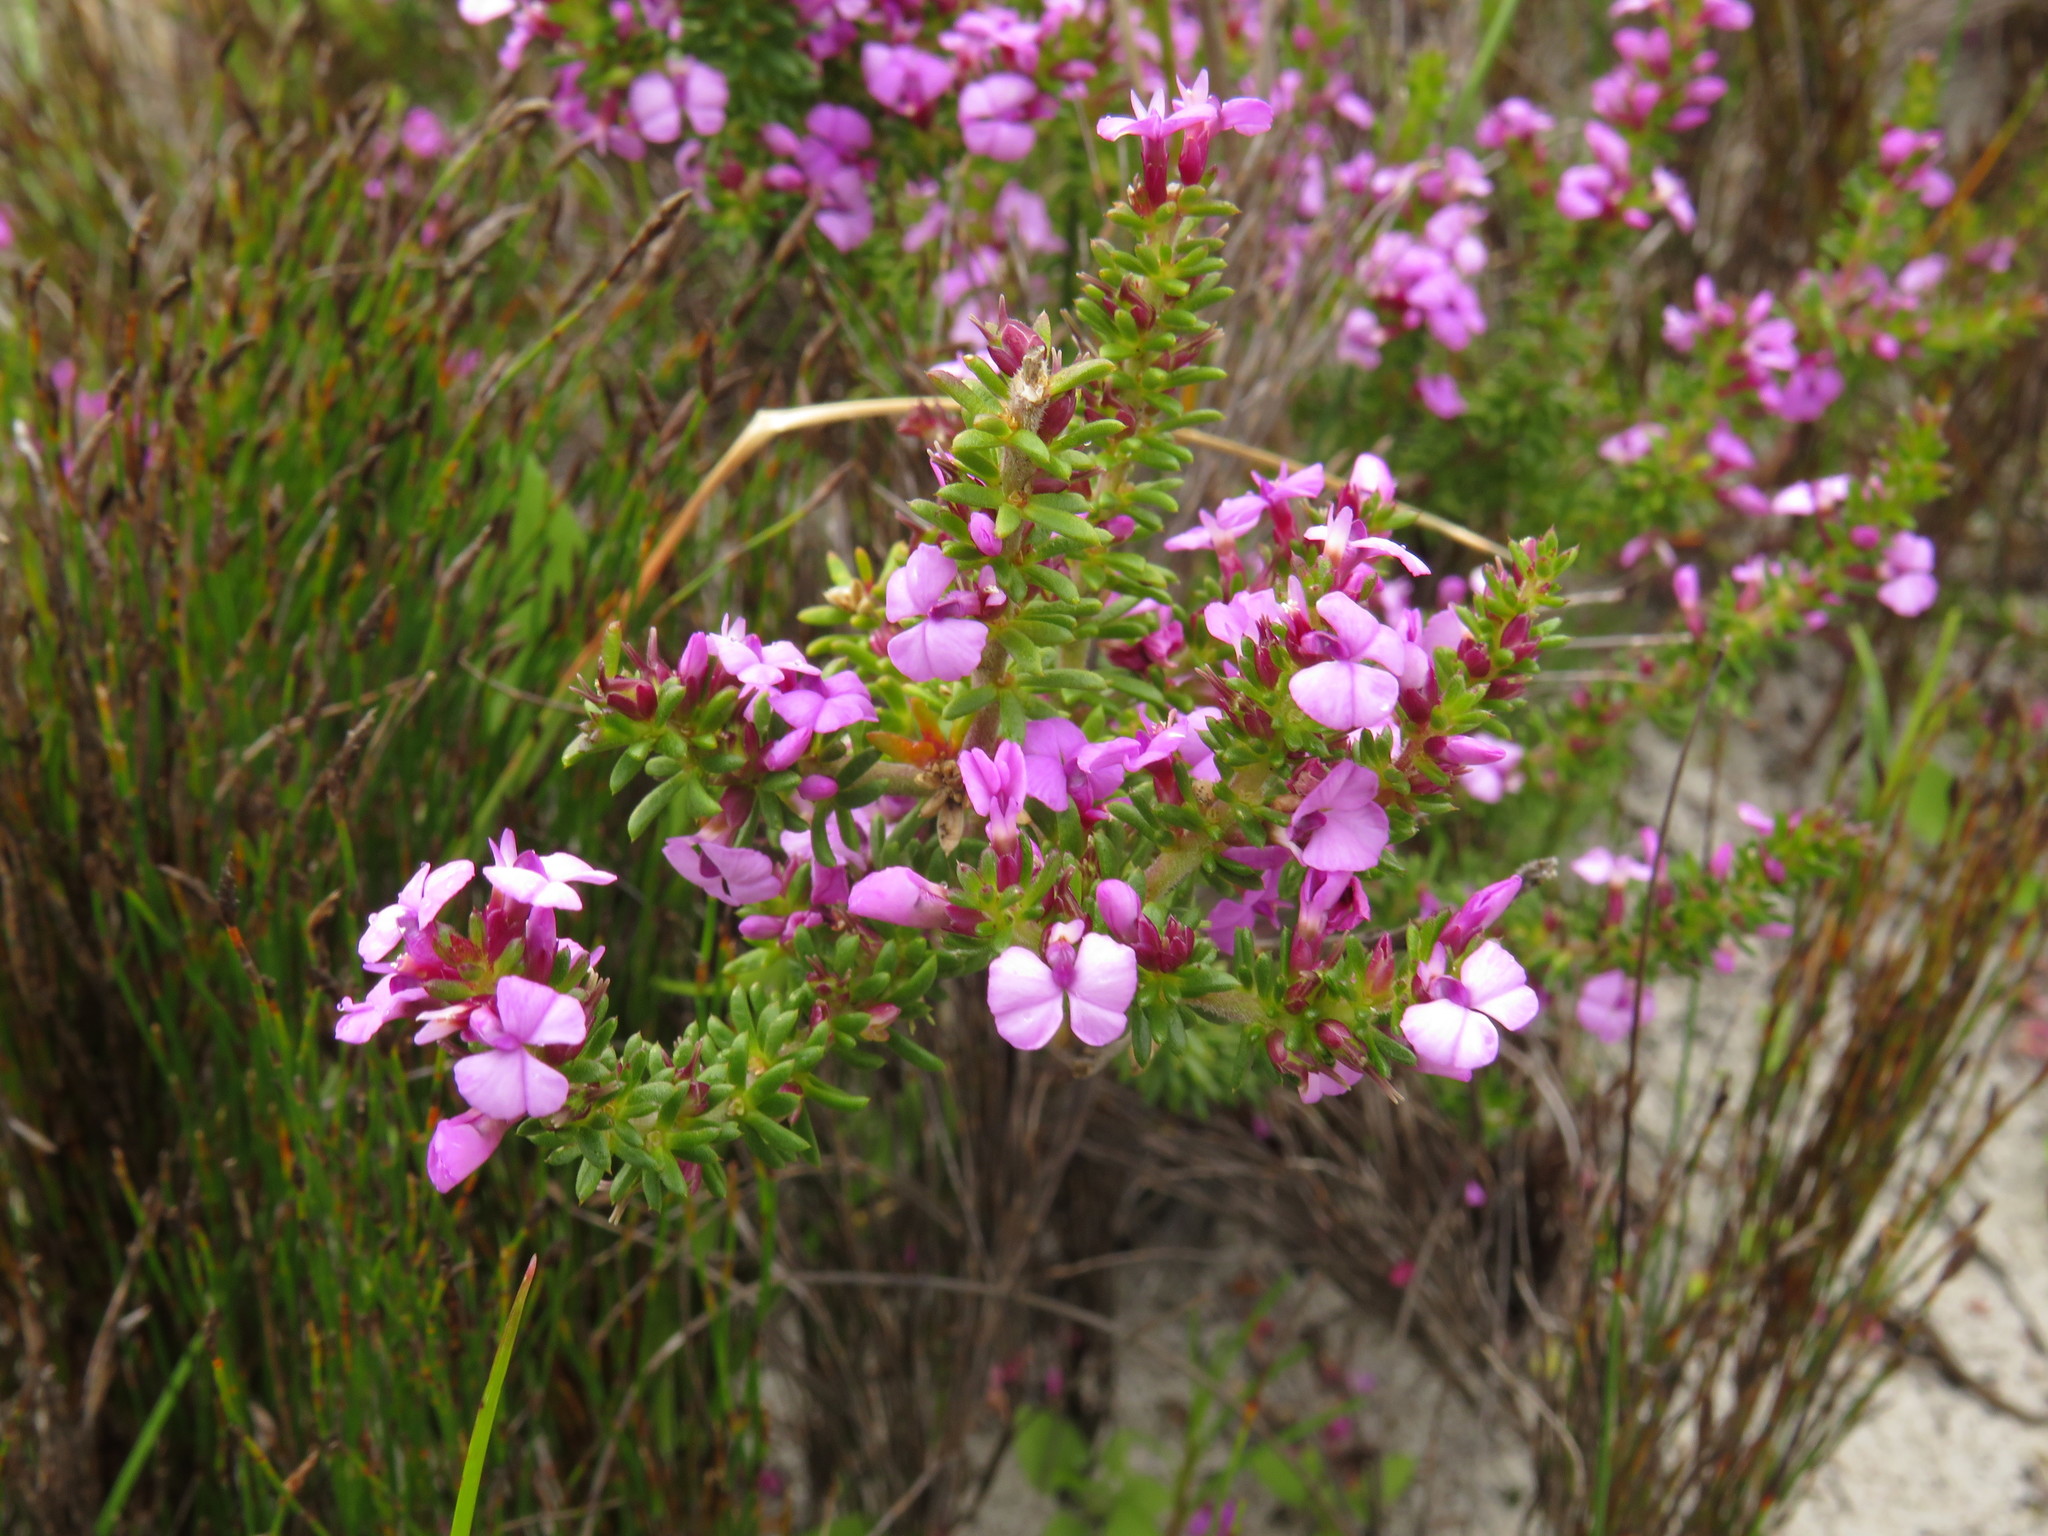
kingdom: Plantae
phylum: Tracheophyta
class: Magnoliopsida
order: Fabales
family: Polygalaceae
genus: Muraltia
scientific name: Muraltia pageae
